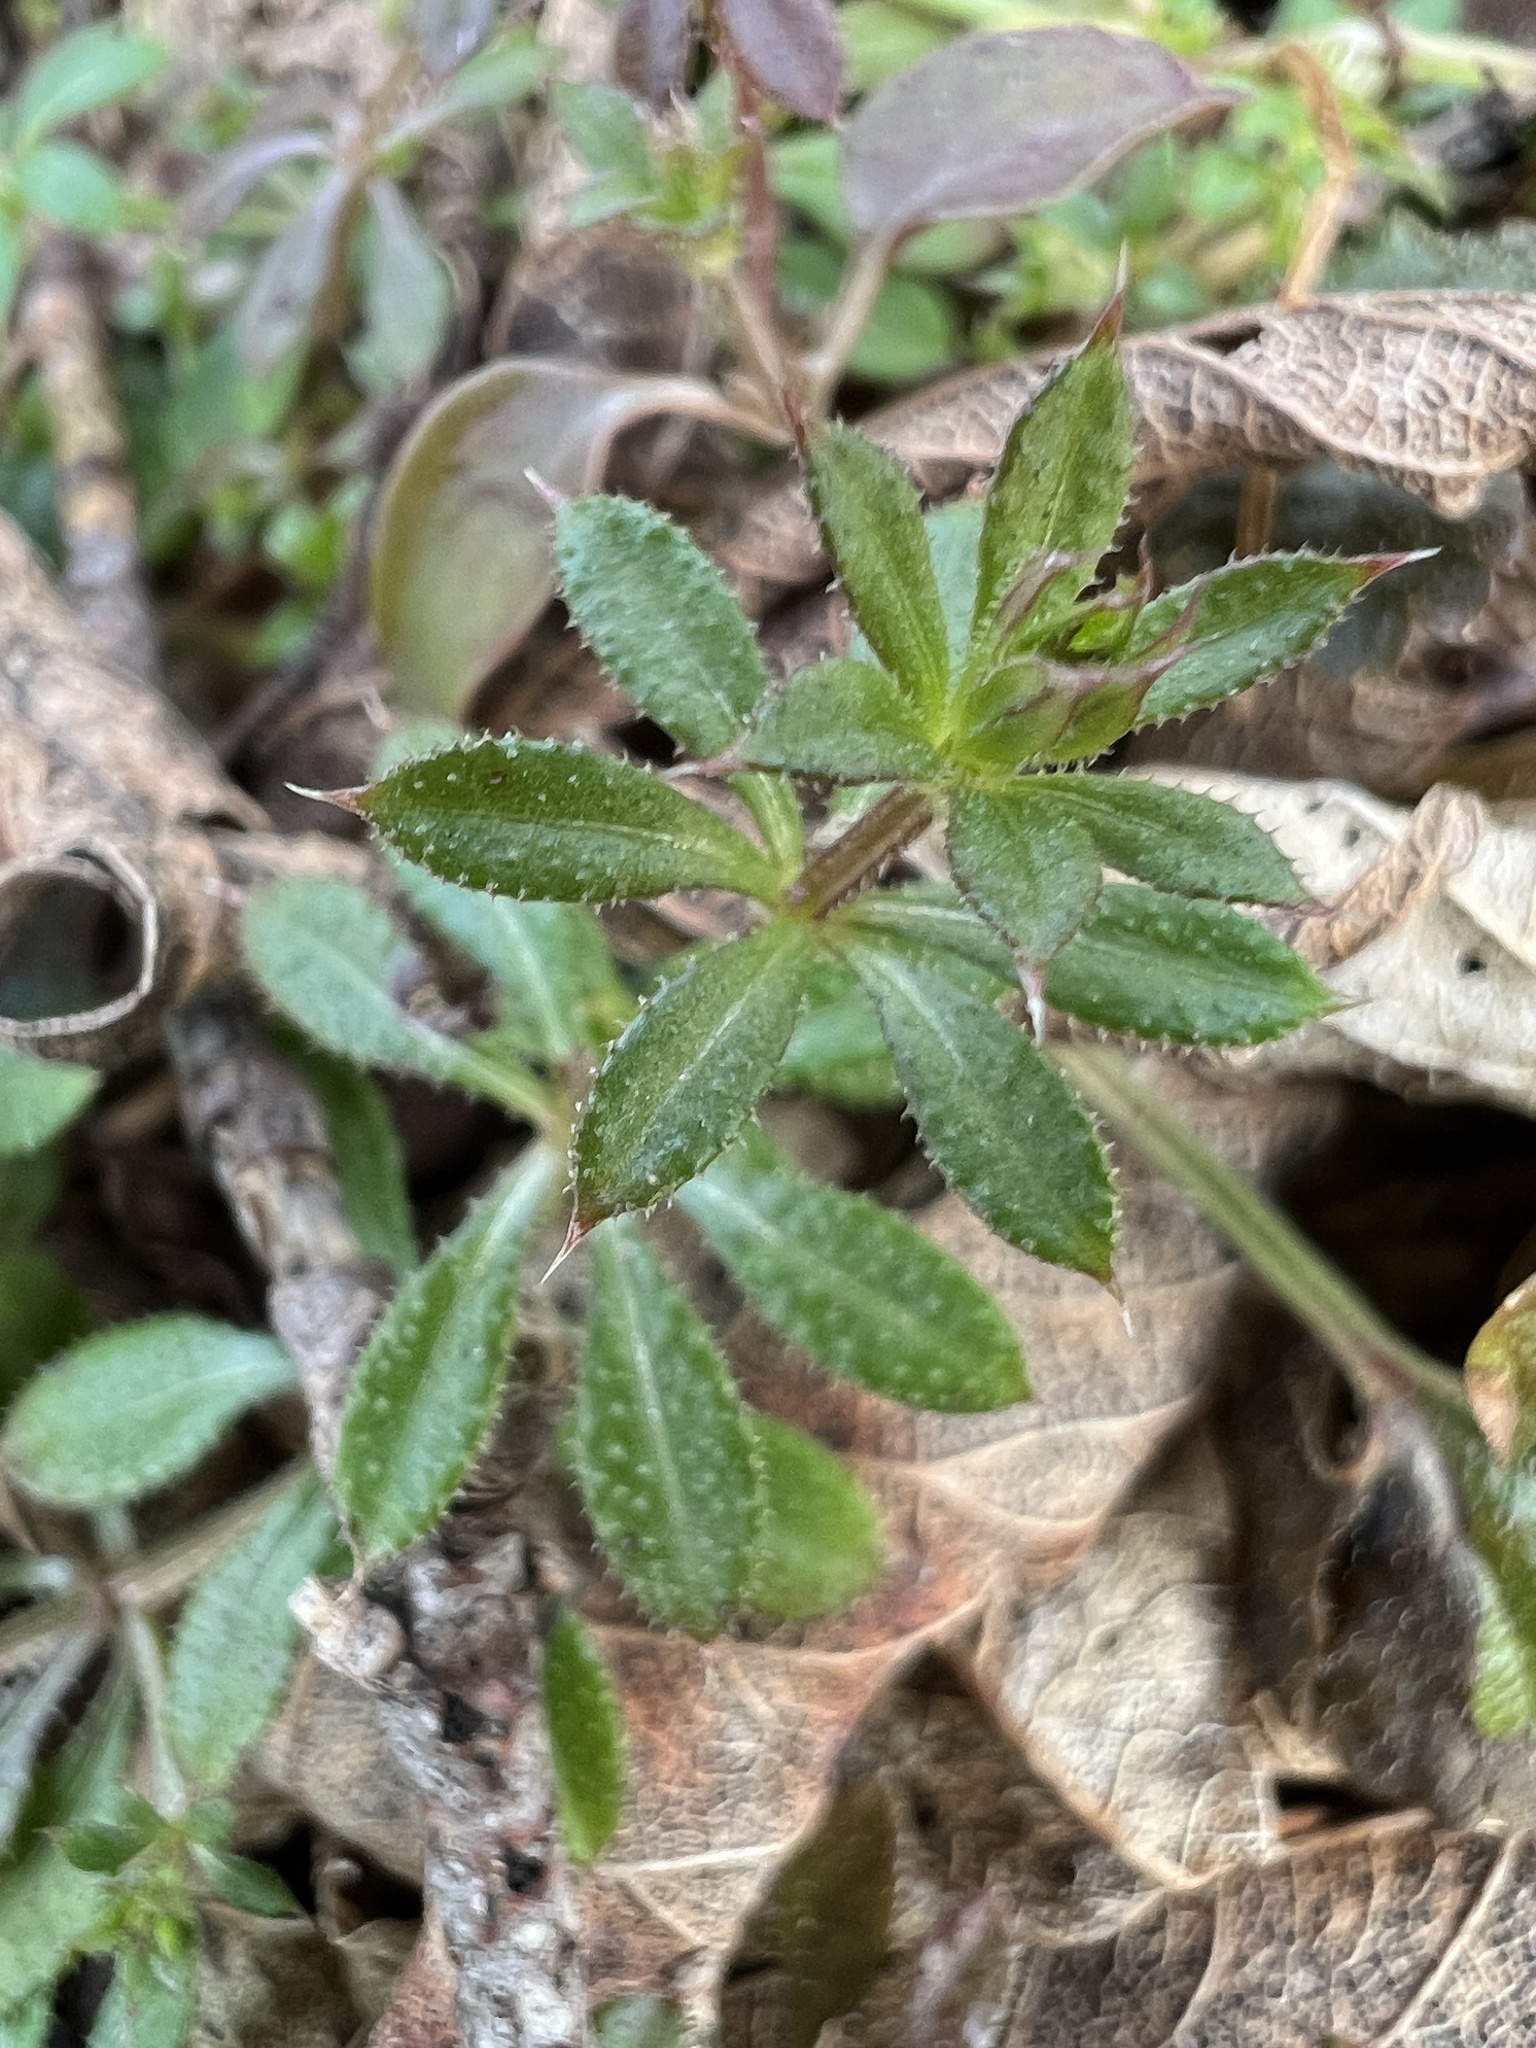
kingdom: Plantae
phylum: Tracheophyta
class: Magnoliopsida
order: Gentianales
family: Rubiaceae
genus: Galium
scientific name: Galium aparine
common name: Cleavers
